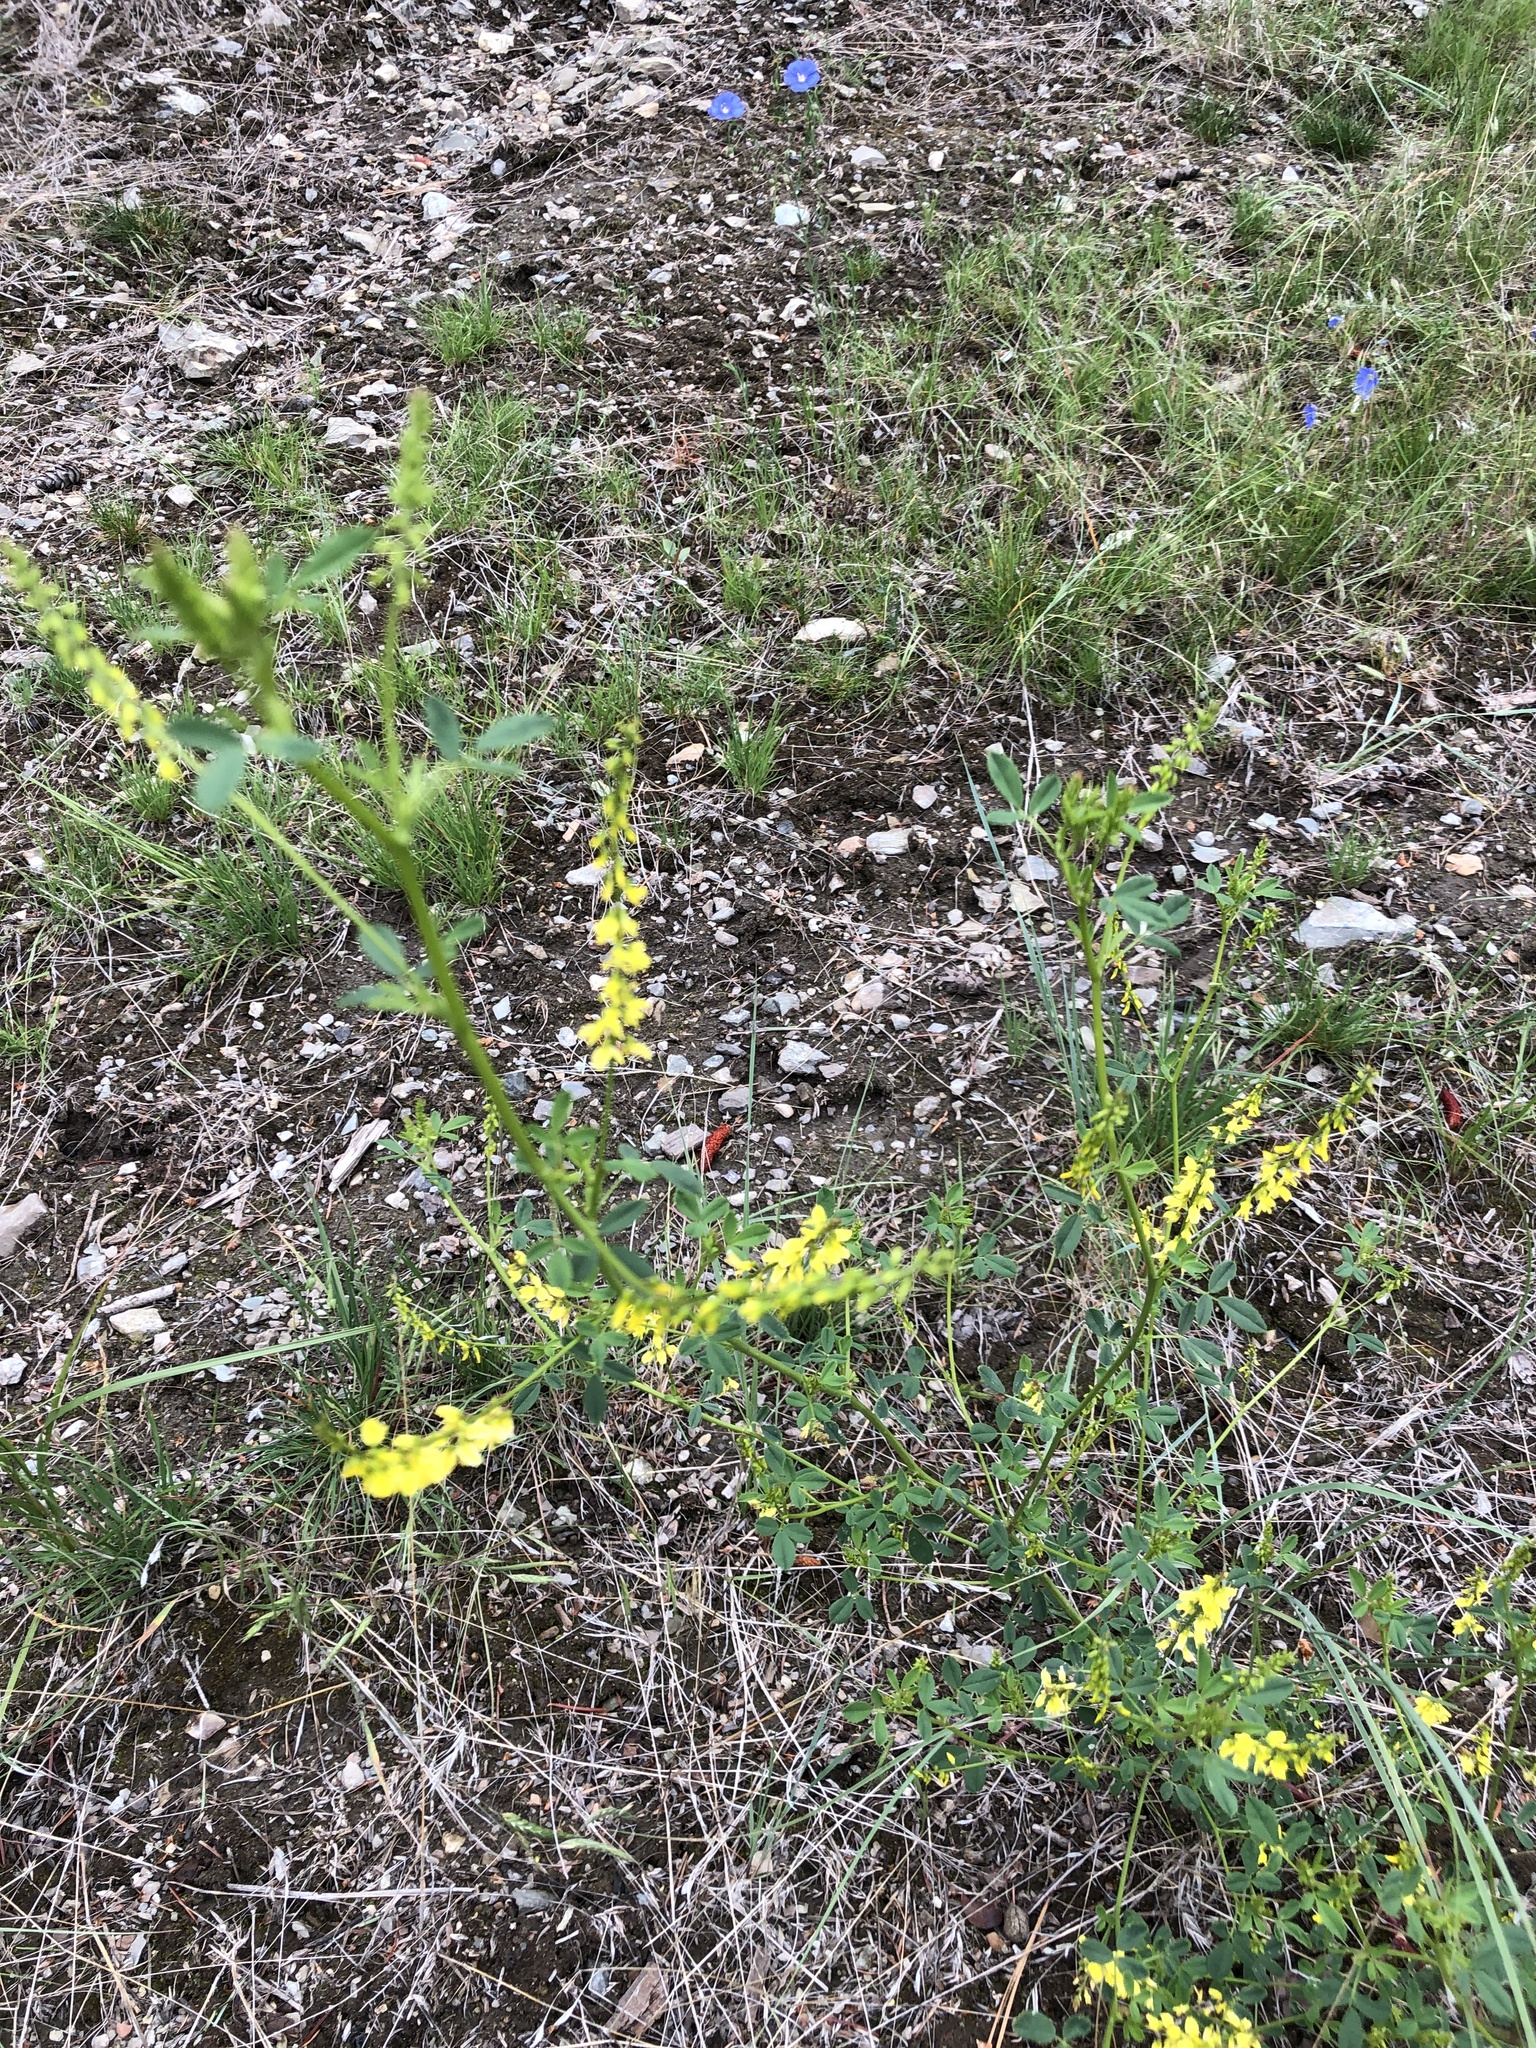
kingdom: Plantae
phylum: Tracheophyta
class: Magnoliopsida
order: Fabales
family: Fabaceae
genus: Melilotus
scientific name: Melilotus officinalis
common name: Sweetclover
